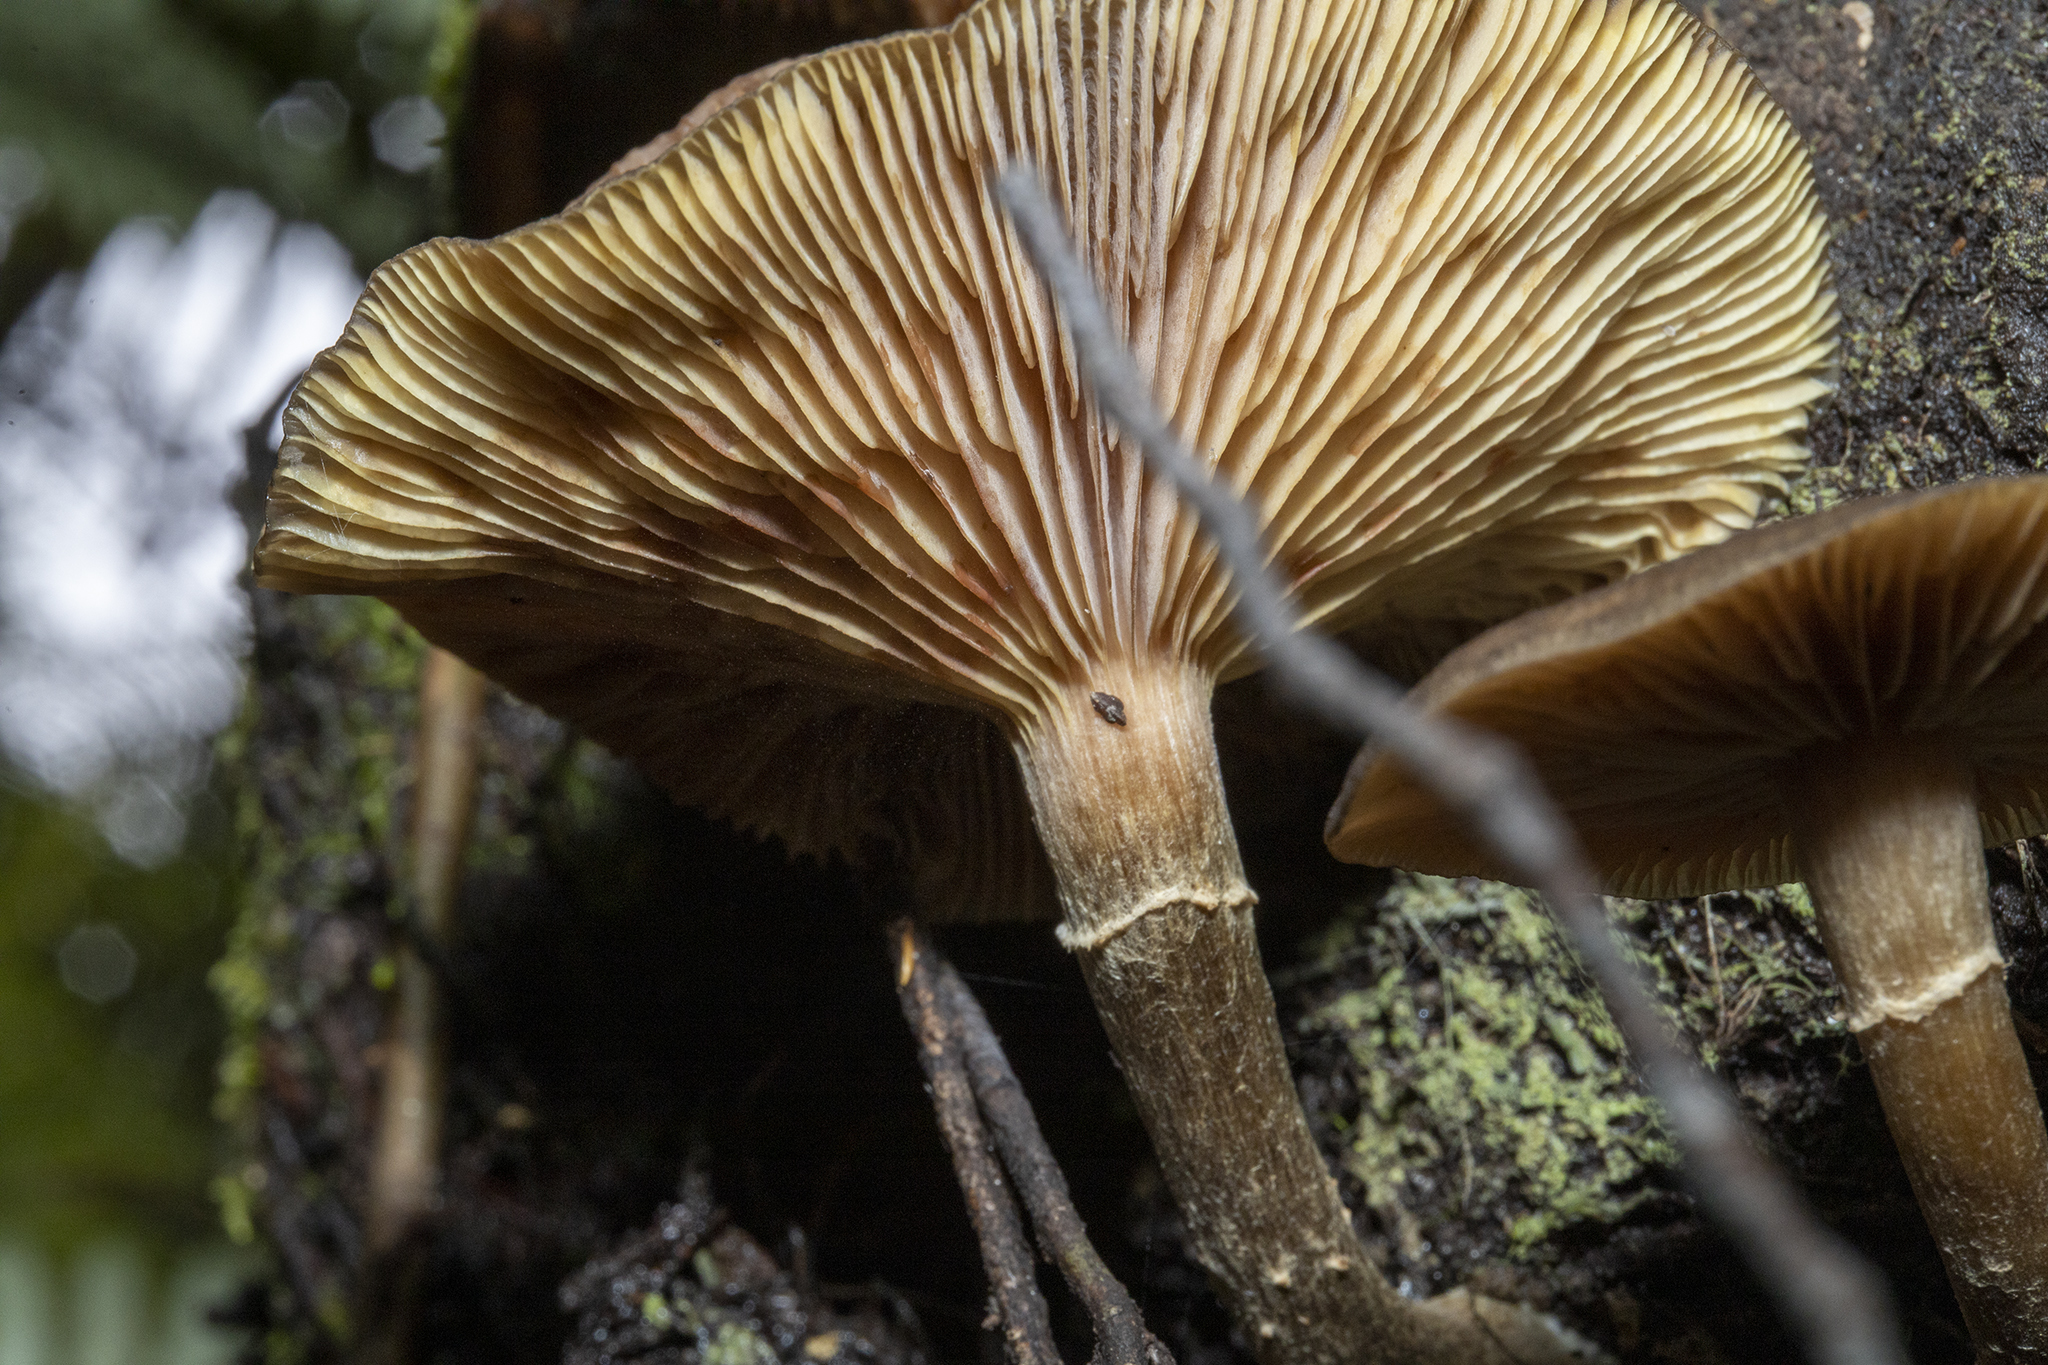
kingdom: Fungi
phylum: Basidiomycota
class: Agaricomycetes
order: Agaricales
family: Physalacriaceae
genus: Armillaria
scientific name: Armillaria novae-zelandiae
